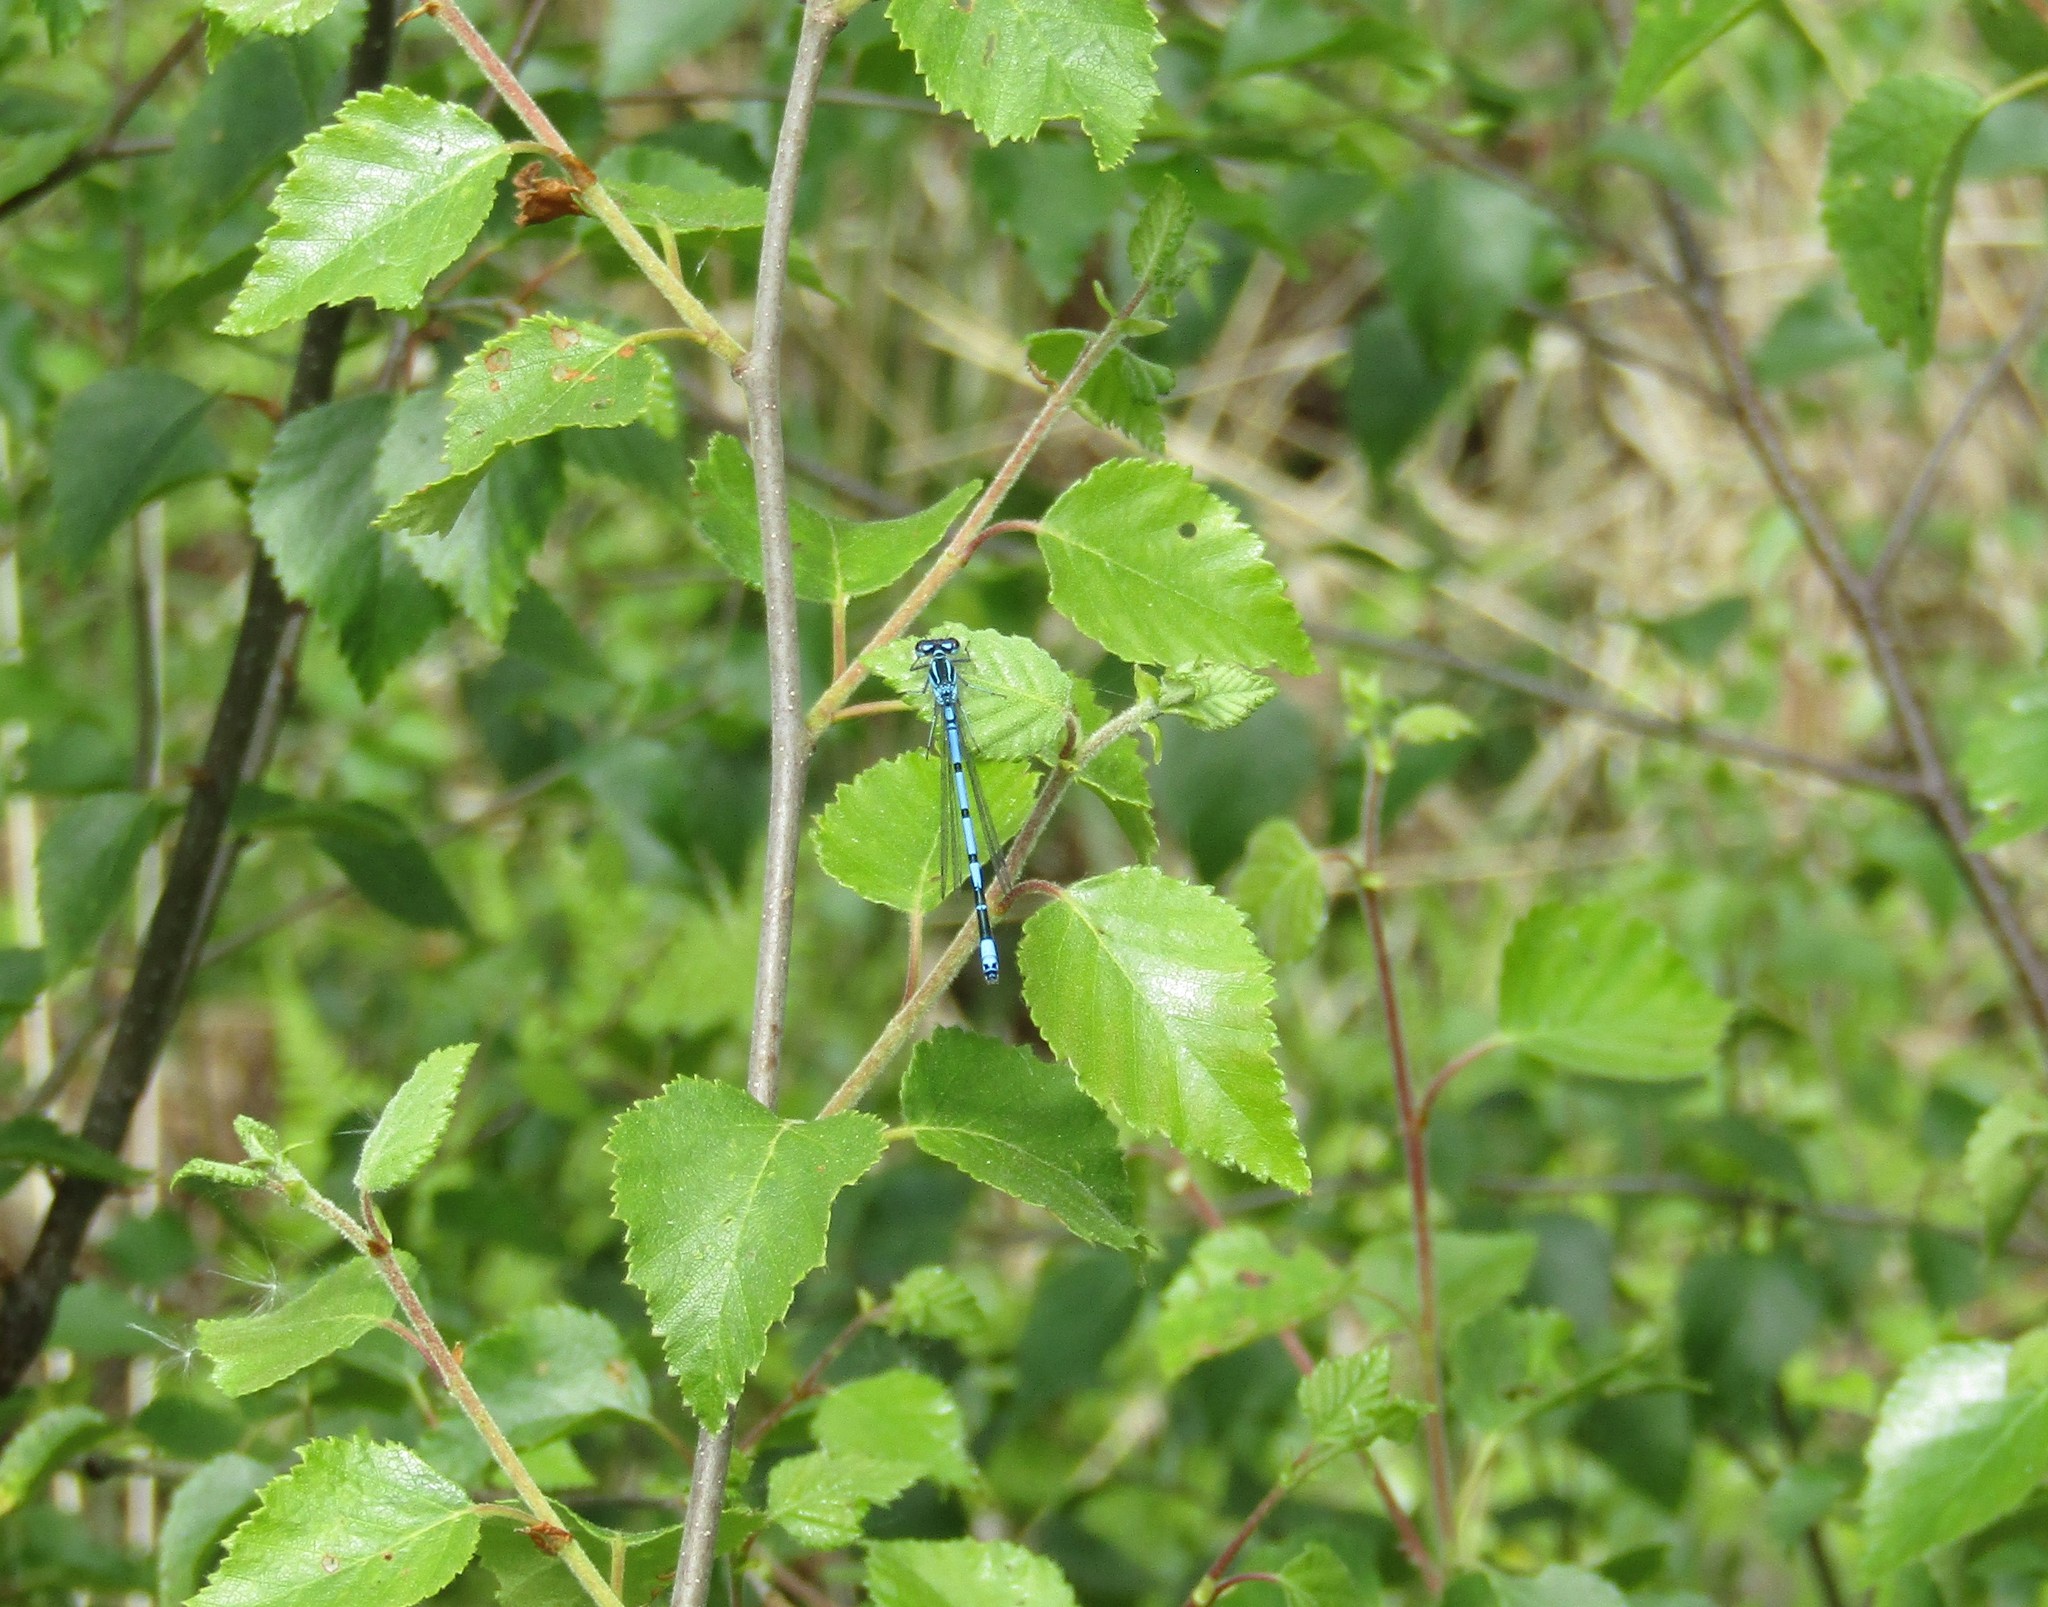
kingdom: Animalia
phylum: Arthropoda
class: Insecta
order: Odonata
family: Coenagrionidae
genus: Coenagrion
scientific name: Coenagrion puella
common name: Azure damselfly
